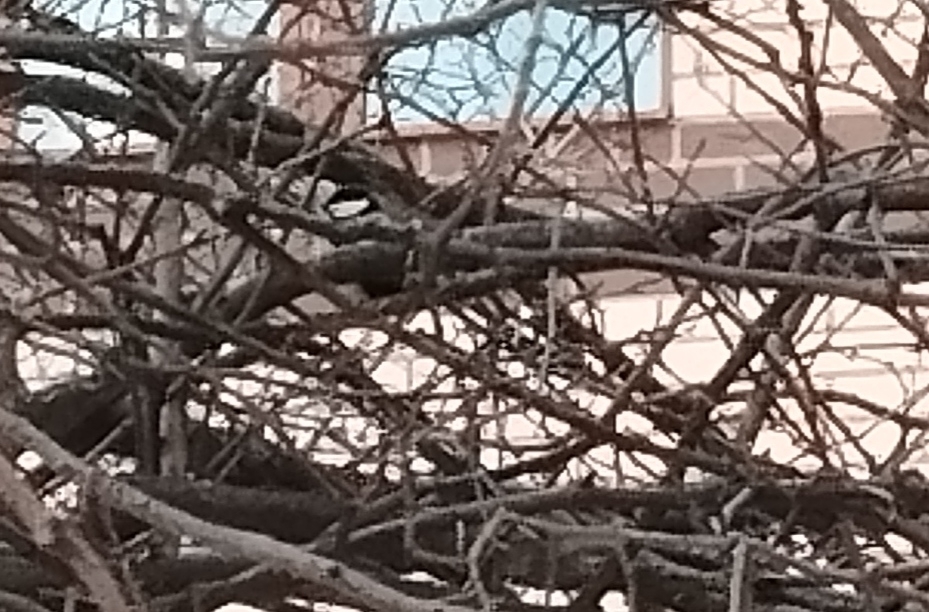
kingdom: Animalia
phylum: Chordata
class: Aves
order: Passeriformes
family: Paridae
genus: Parus
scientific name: Parus major
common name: Great tit
